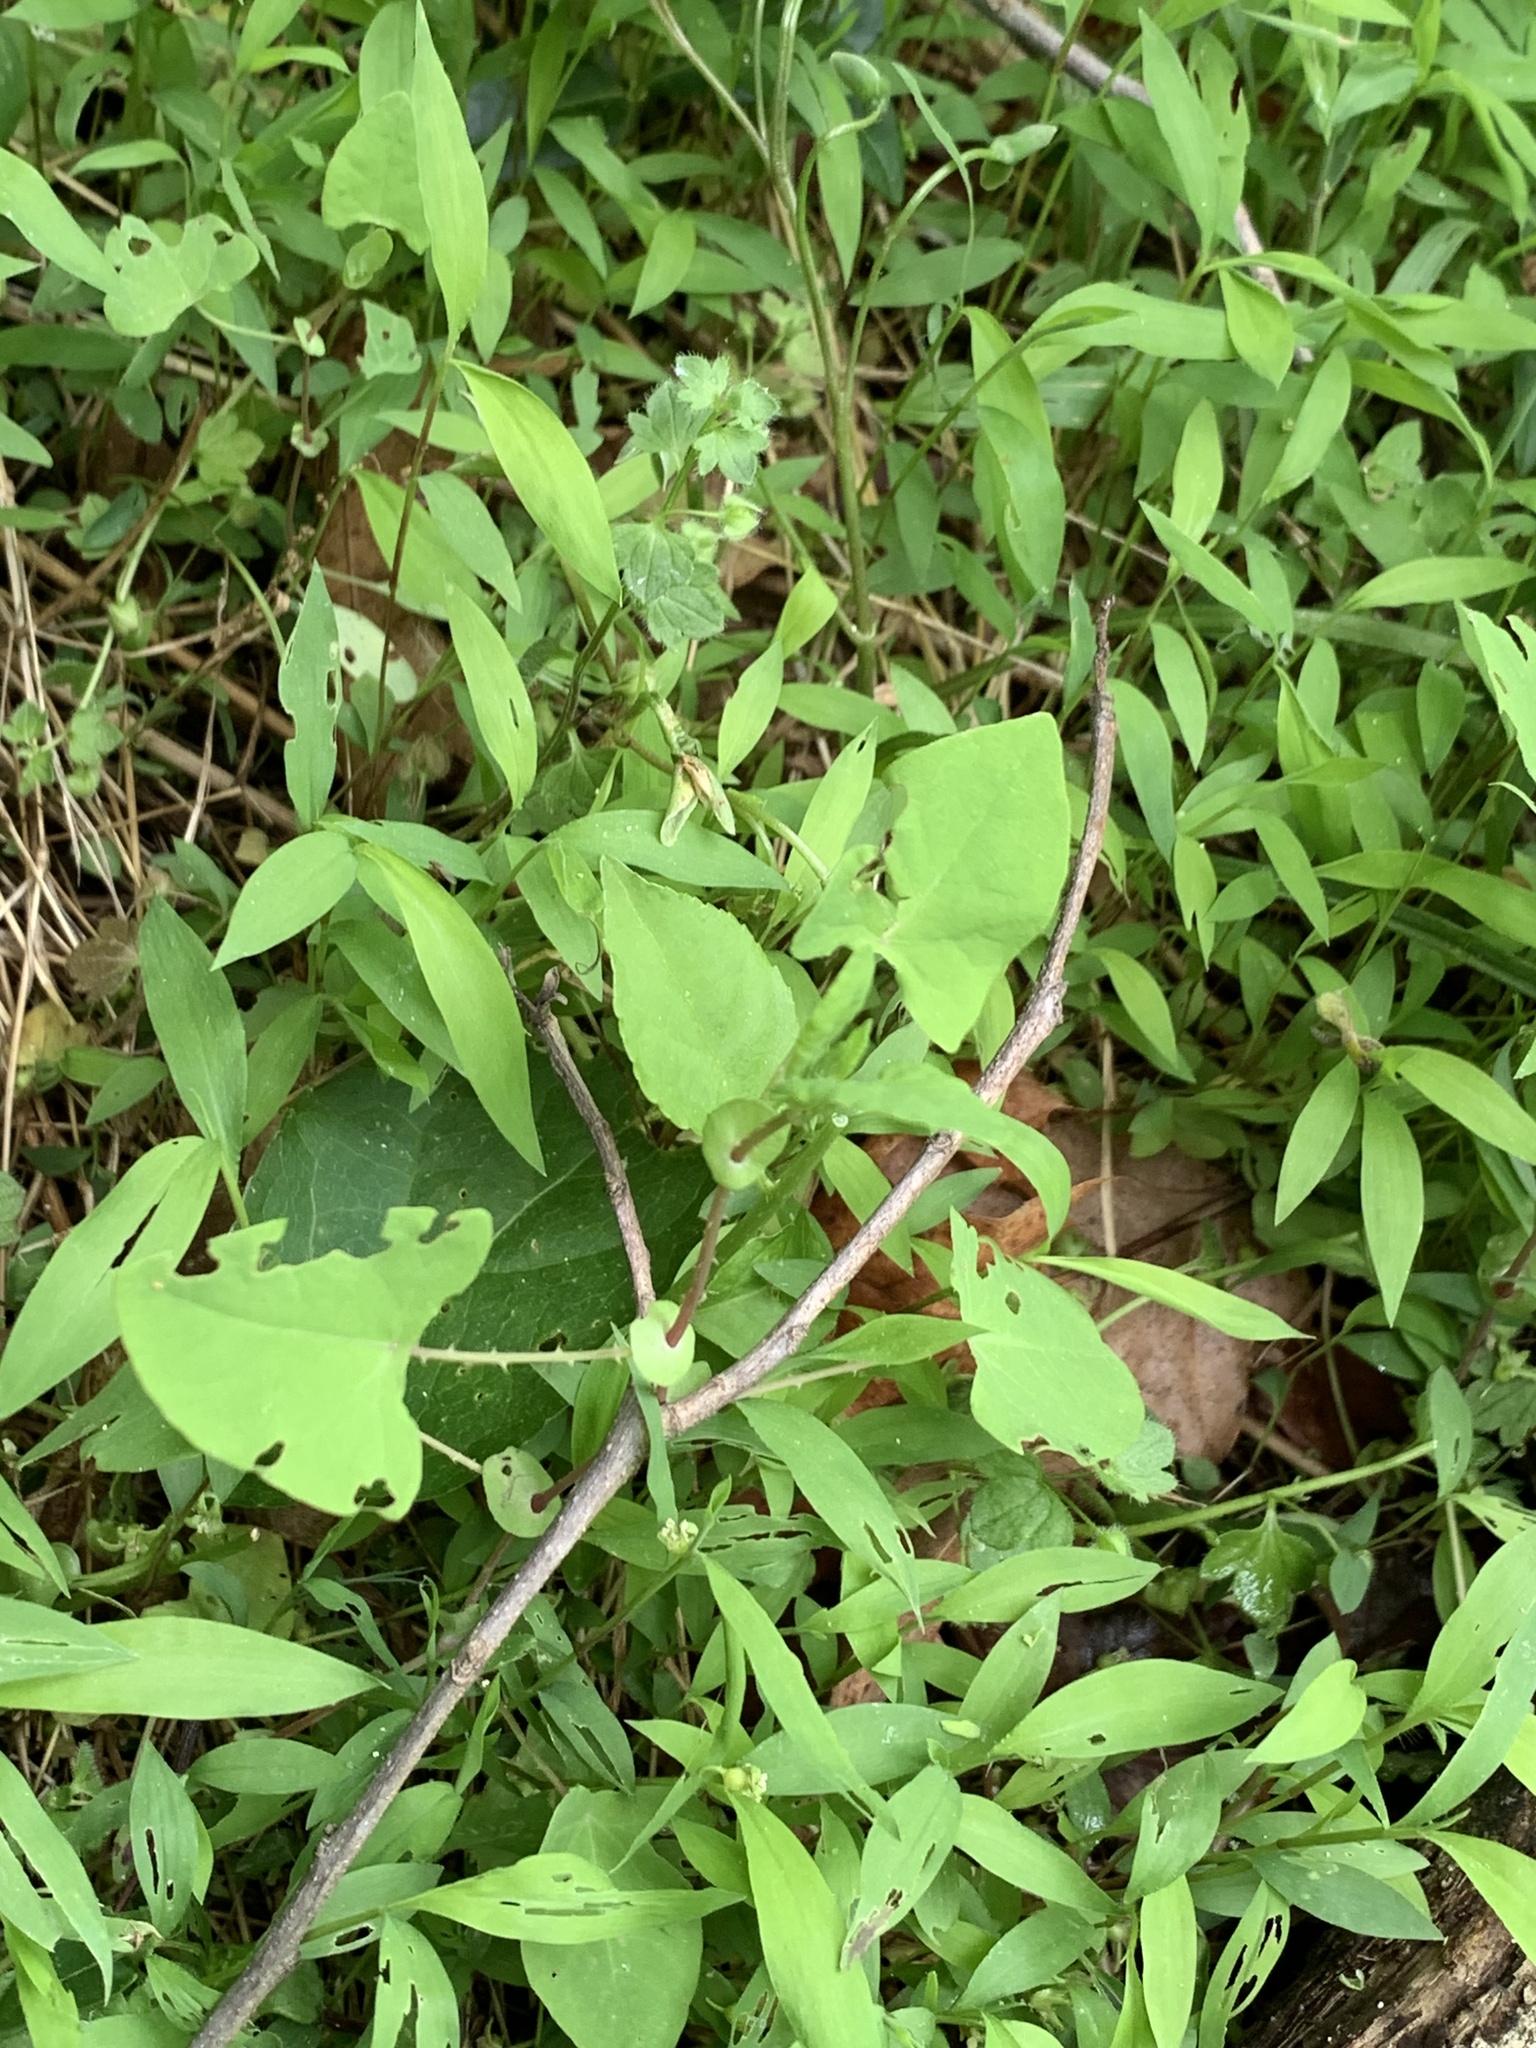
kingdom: Plantae
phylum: Tracheophyta
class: Magnoliopsida
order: Caryophyllales
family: Polygonaceae
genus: Persicaria
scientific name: Persicaria perfoliata
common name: Asiatic tearthumb
